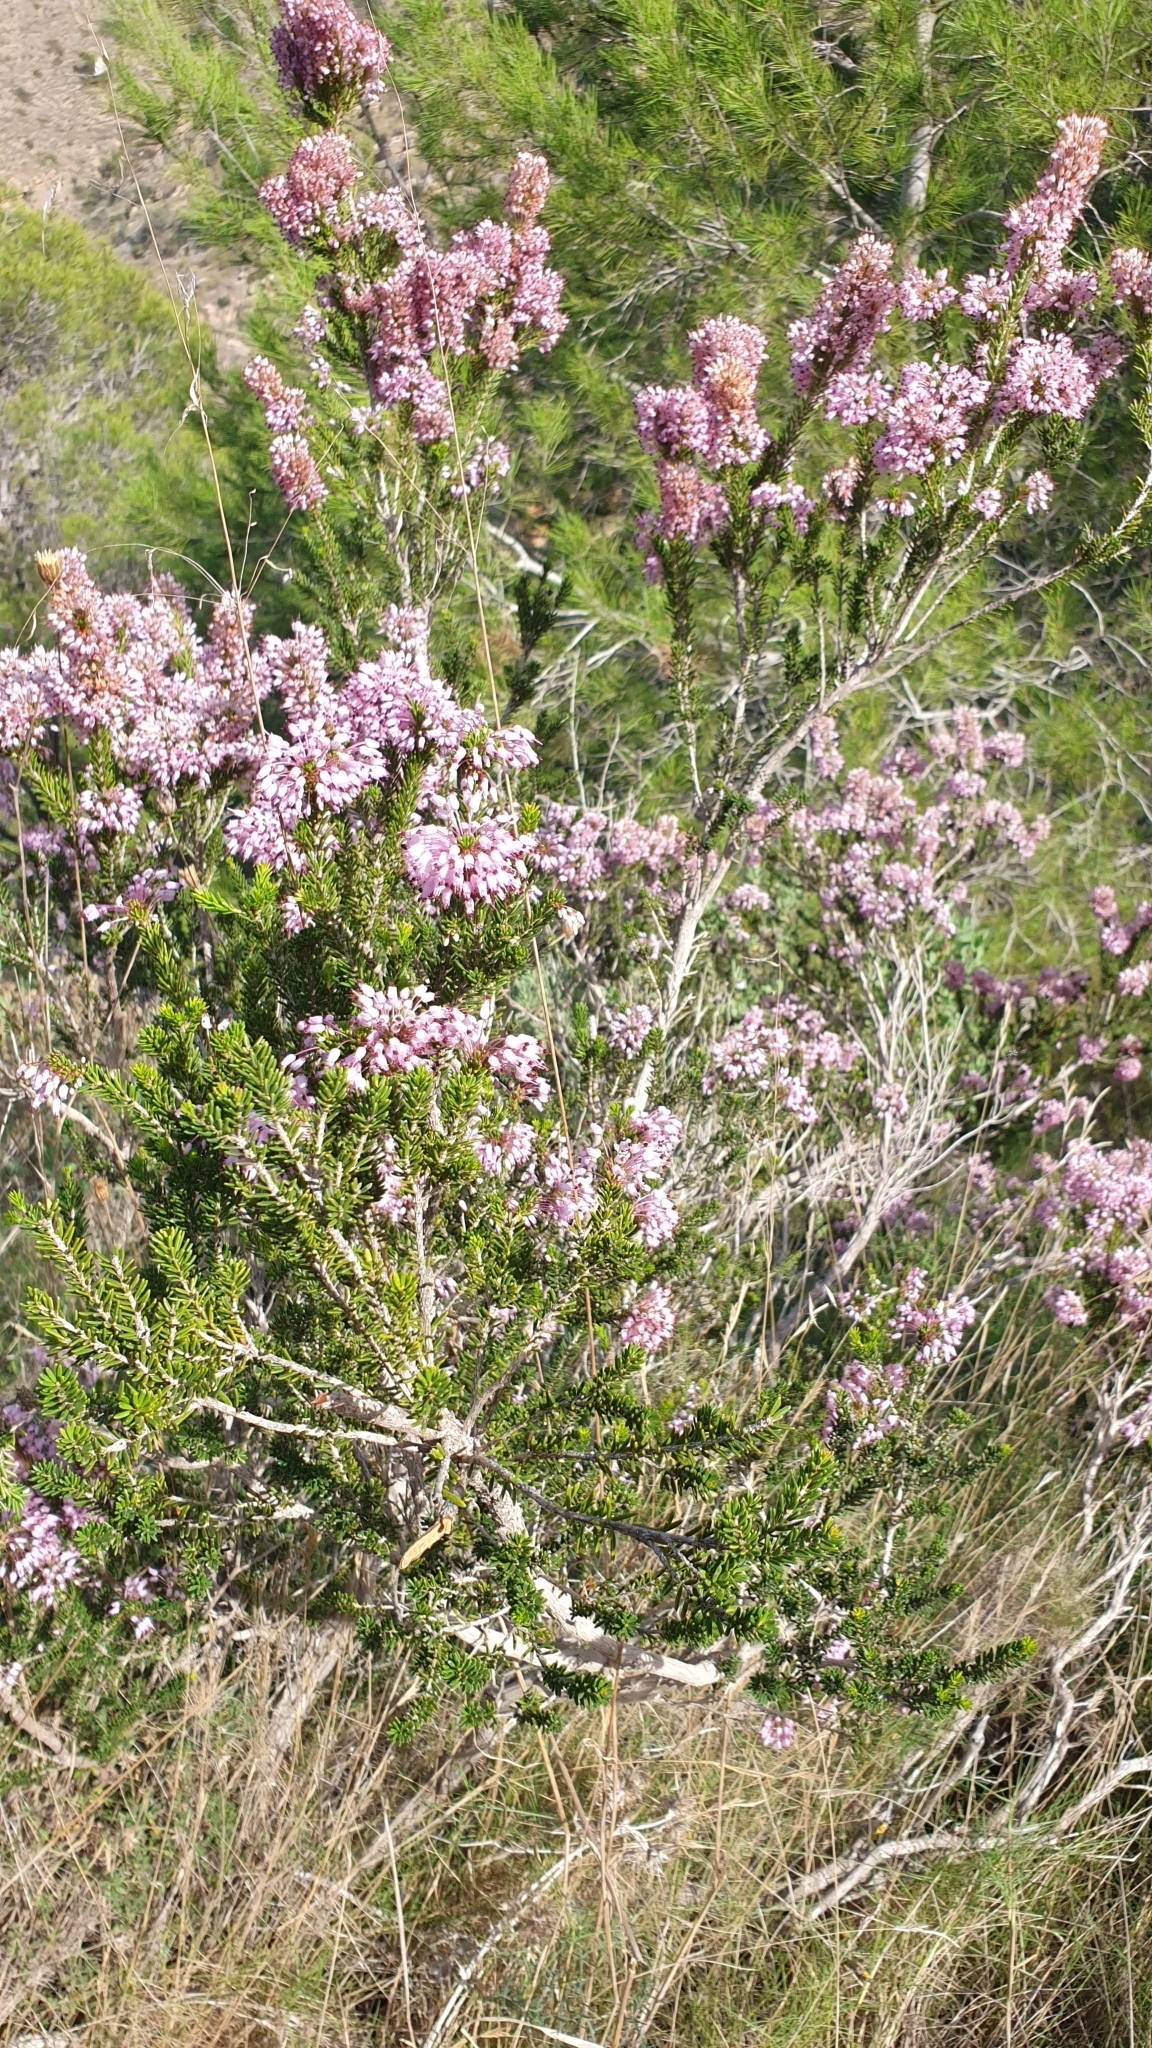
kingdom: Plantae
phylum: Tracheophyta
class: Magnoliopsida
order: Ericales
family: Ericaceae
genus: Erica
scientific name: Erica multiflora
